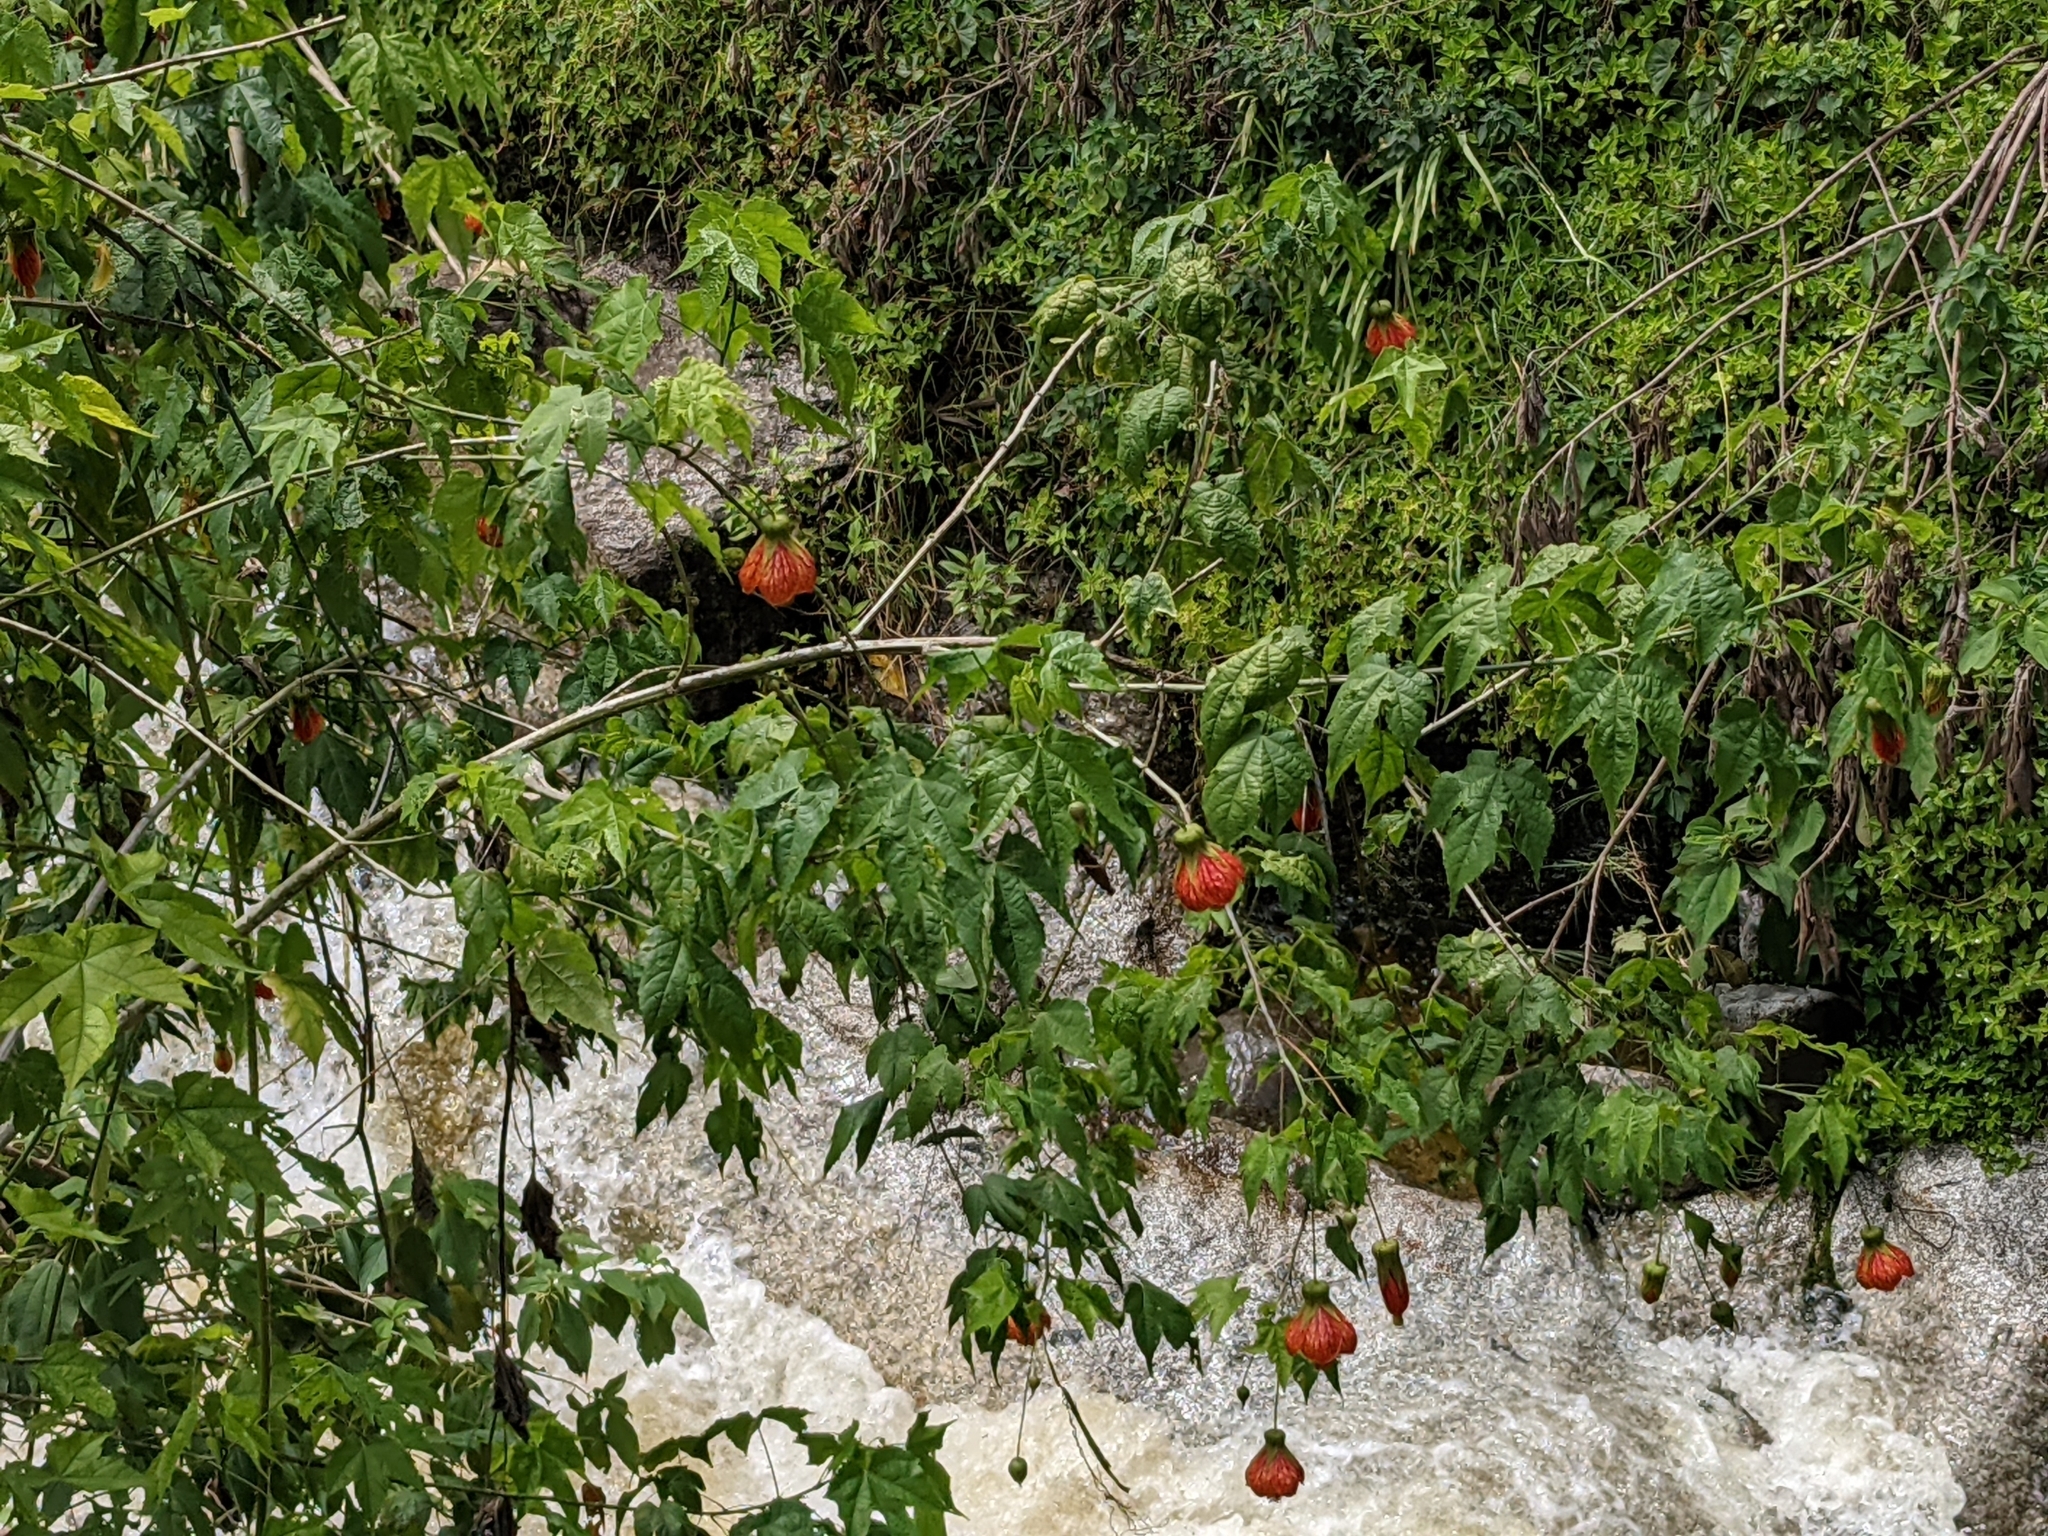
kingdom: Plantae
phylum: Tracheophyta
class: Magnoliopsida
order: Malvales
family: Malvaceae
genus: Callianthe
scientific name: Callianthe picta
